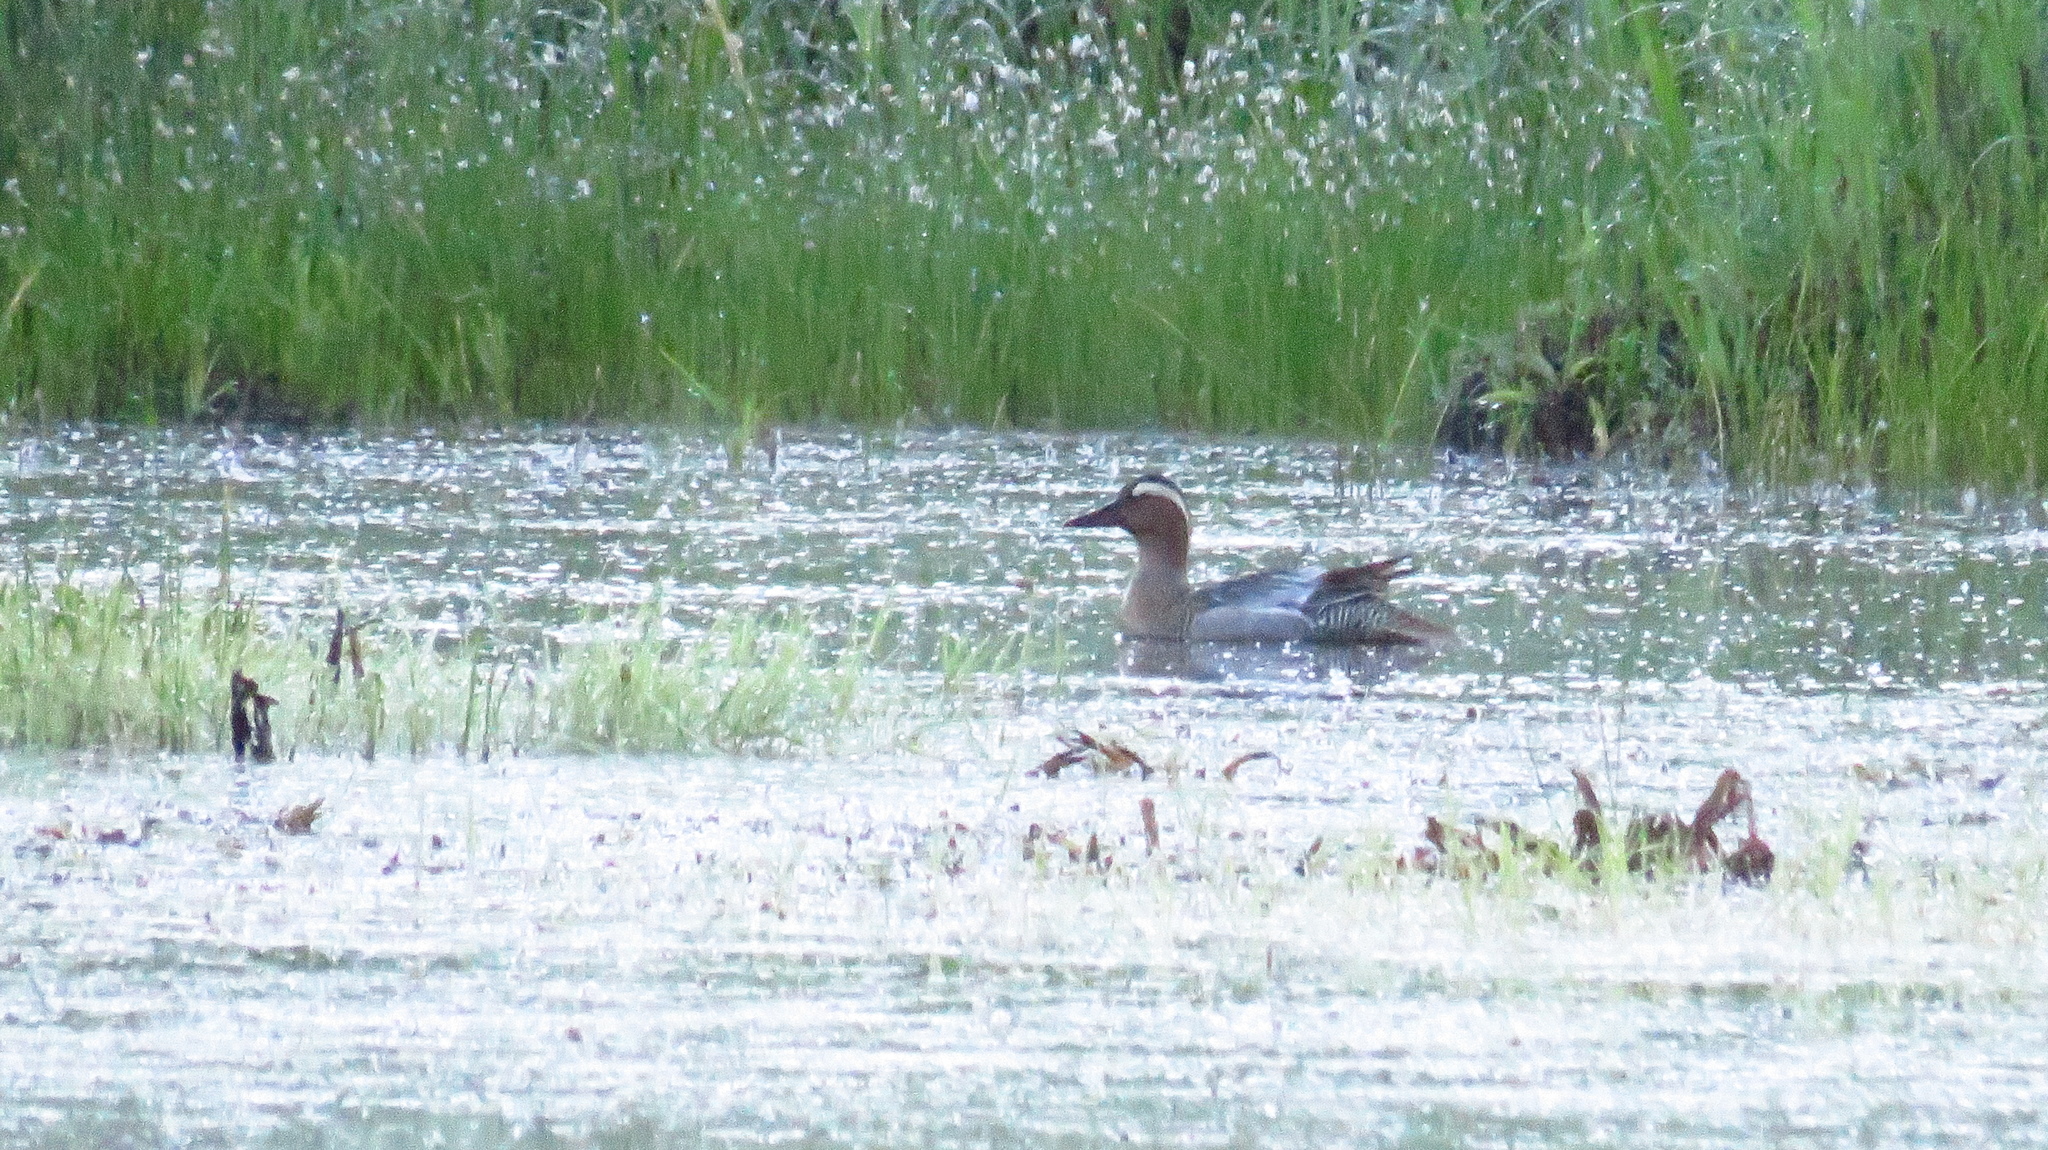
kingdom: Animalia
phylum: Chordata
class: Aves
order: Anseriformes
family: Anatidae
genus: Spatula
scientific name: Spatula querquedula
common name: Garganey
